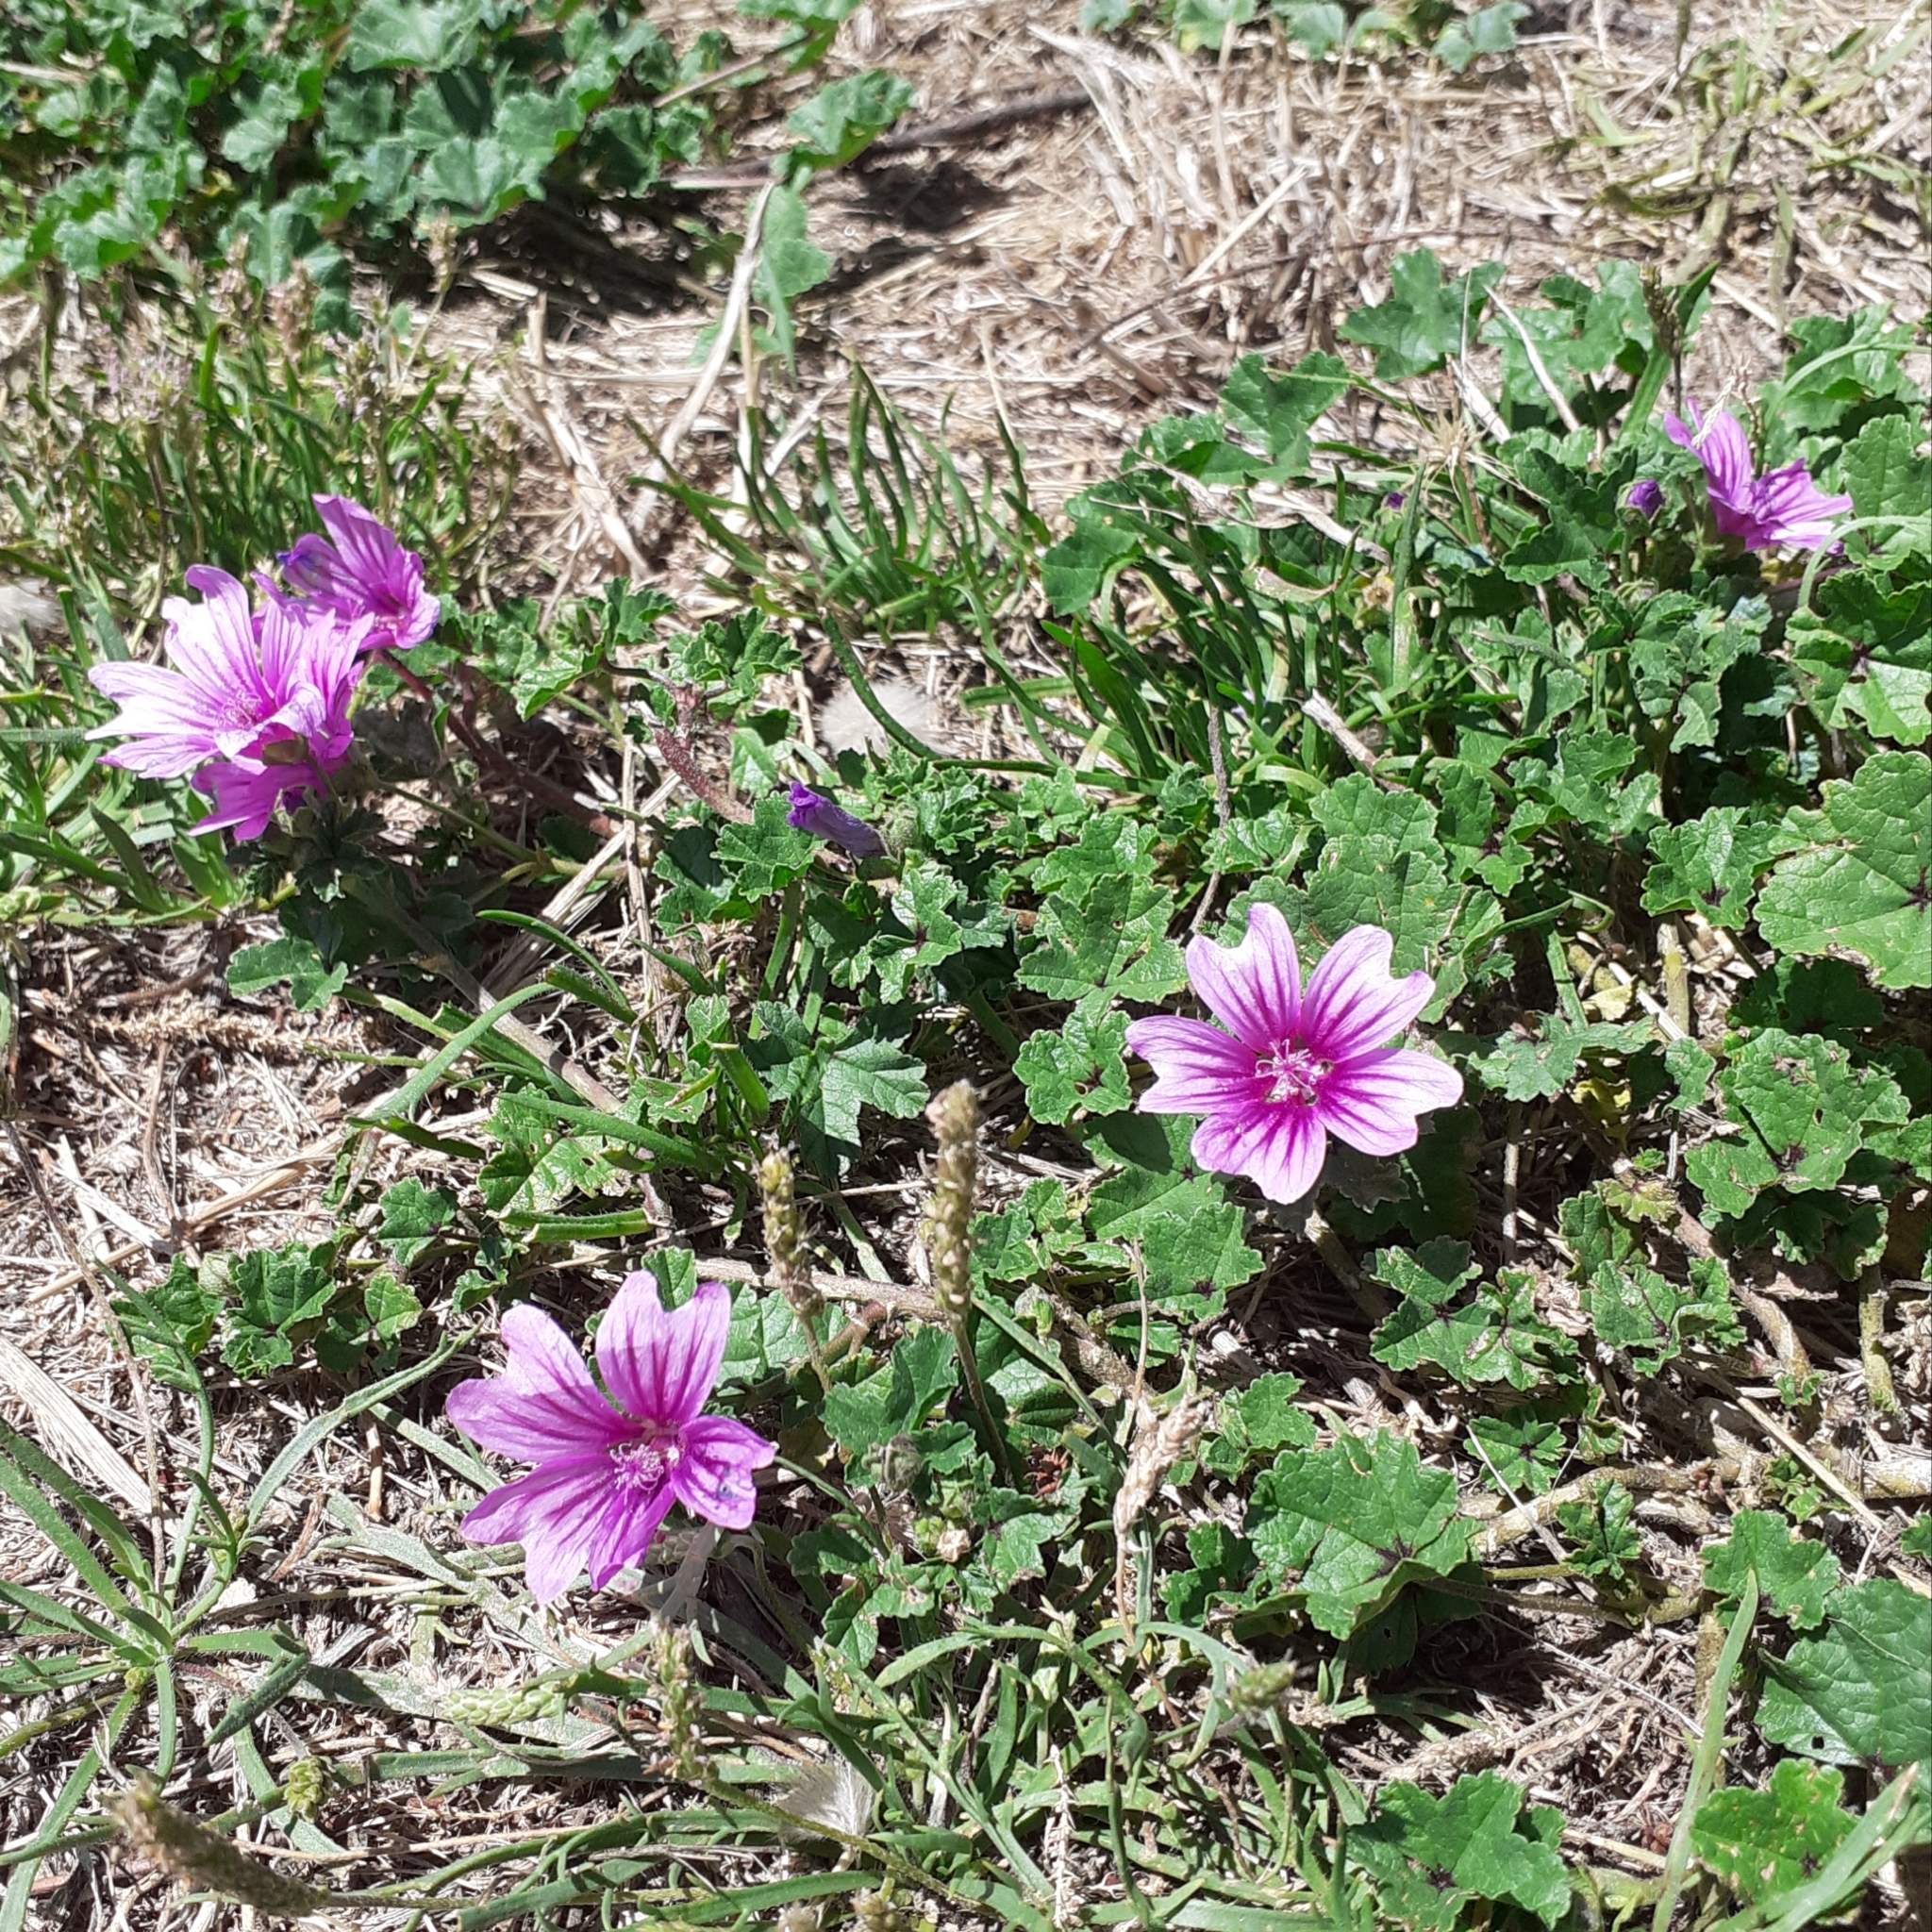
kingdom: Plantae
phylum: Tracheophyta
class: Magnoliopsida
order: Malvales
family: Malvaceae
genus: Malva
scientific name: Malva sylvestris
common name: Common mallow
